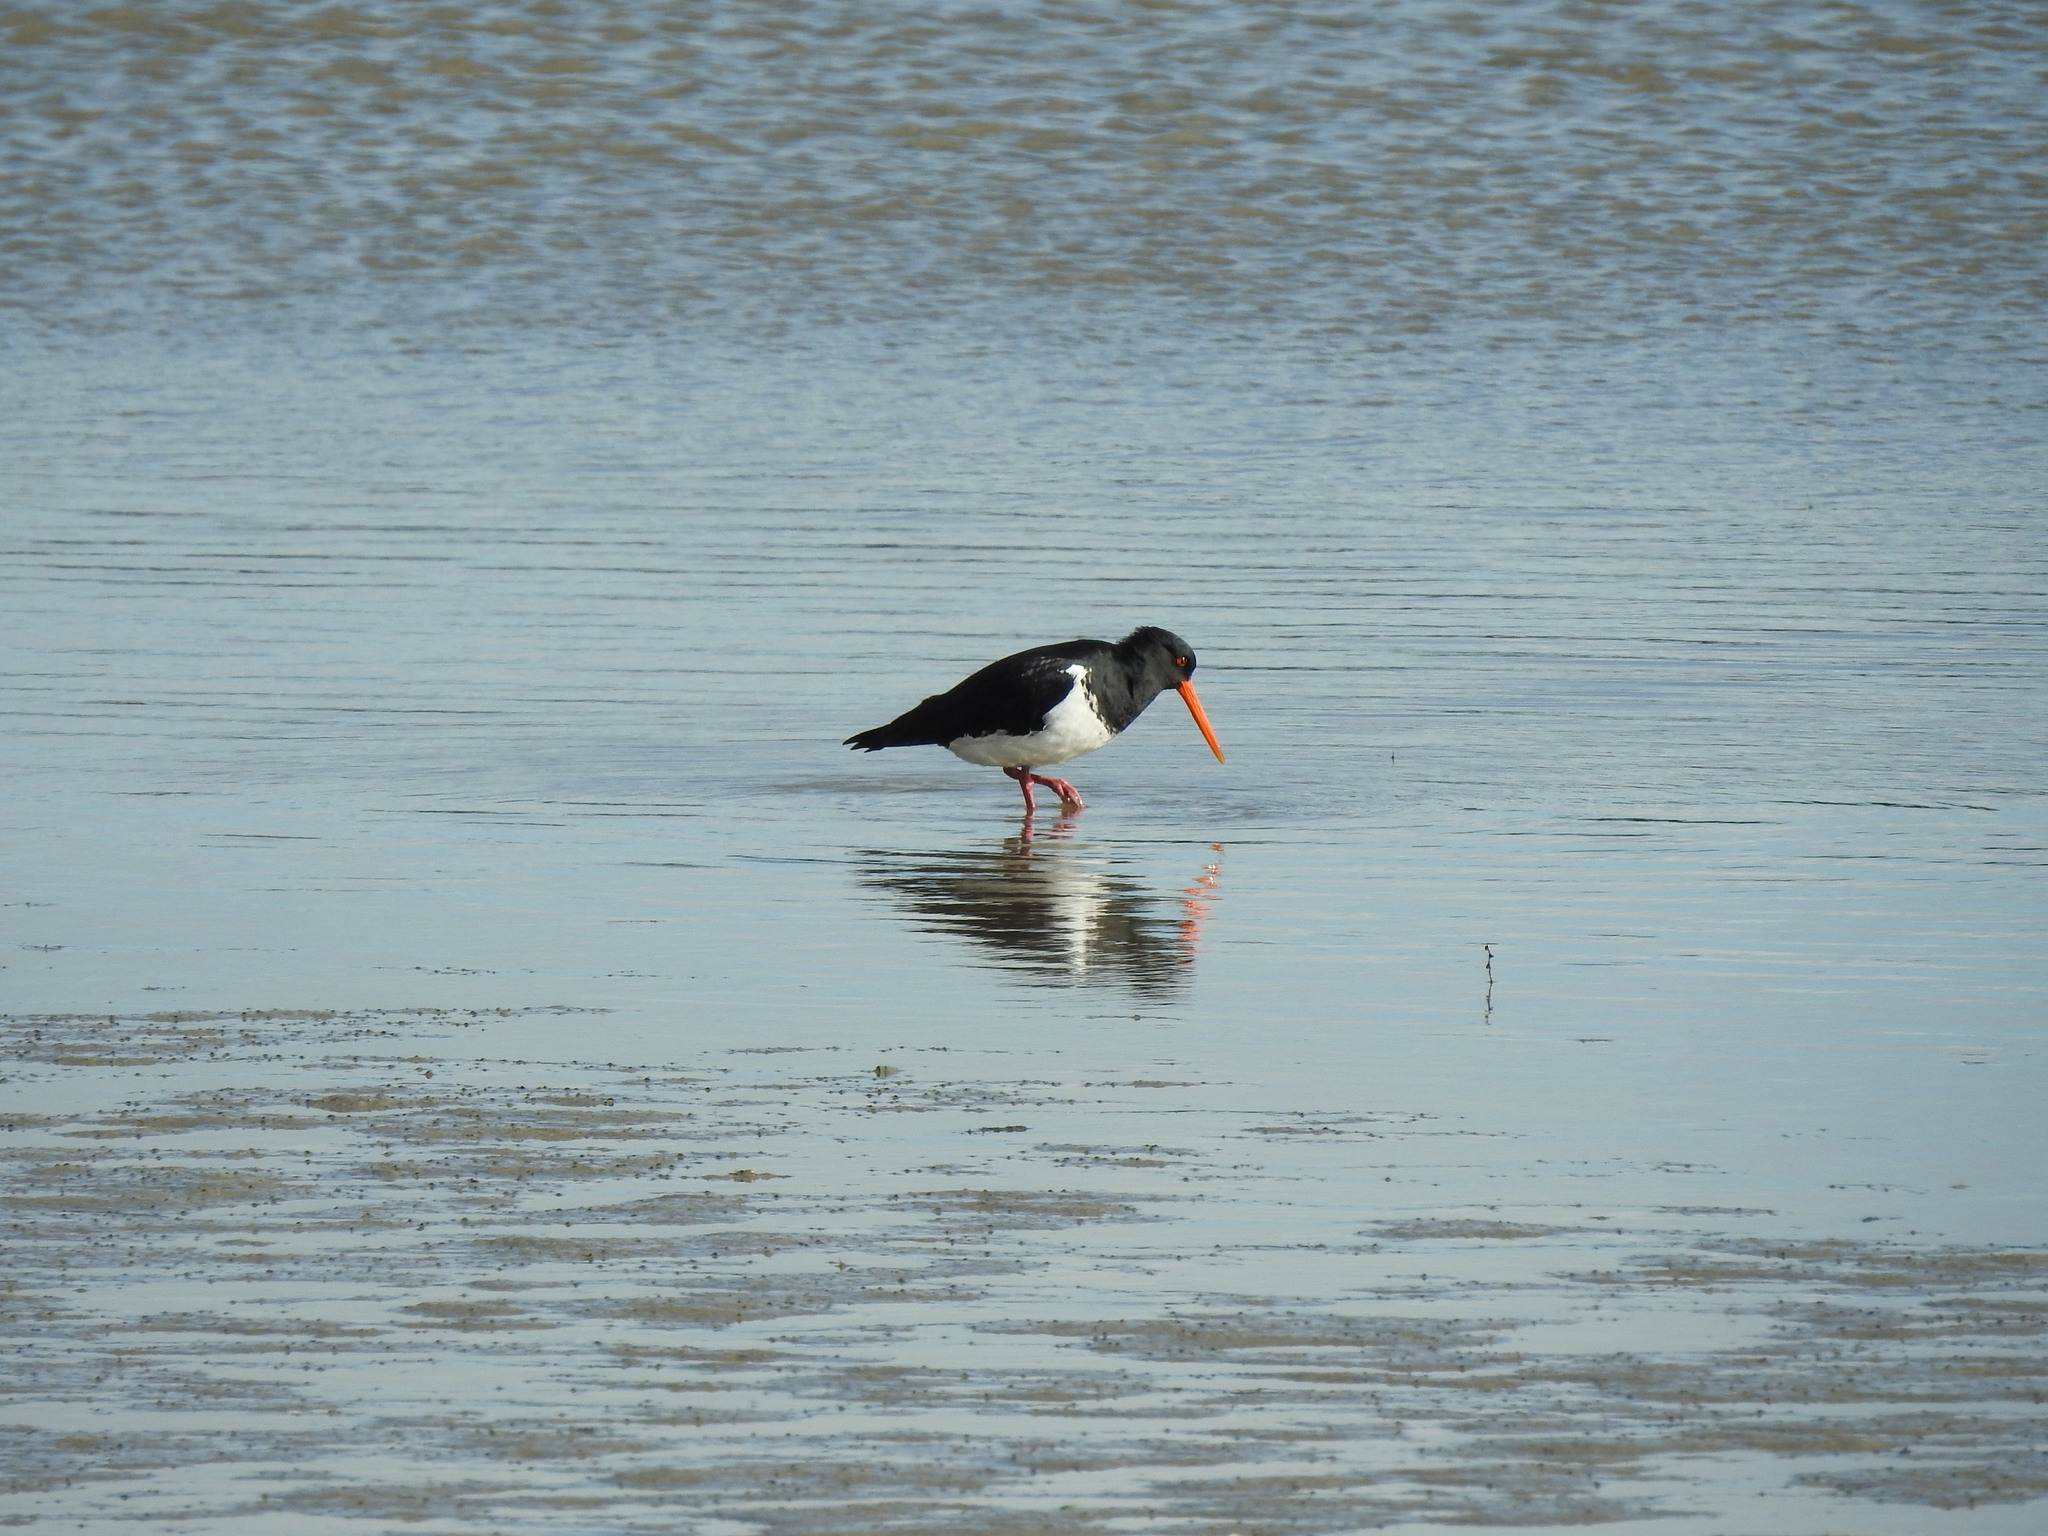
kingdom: Animalia
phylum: Chordata
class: Aves
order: Charadriiformes
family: Haematopodidae
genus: Haematopus
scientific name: Haematopus finschi
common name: South island oystercatcher
